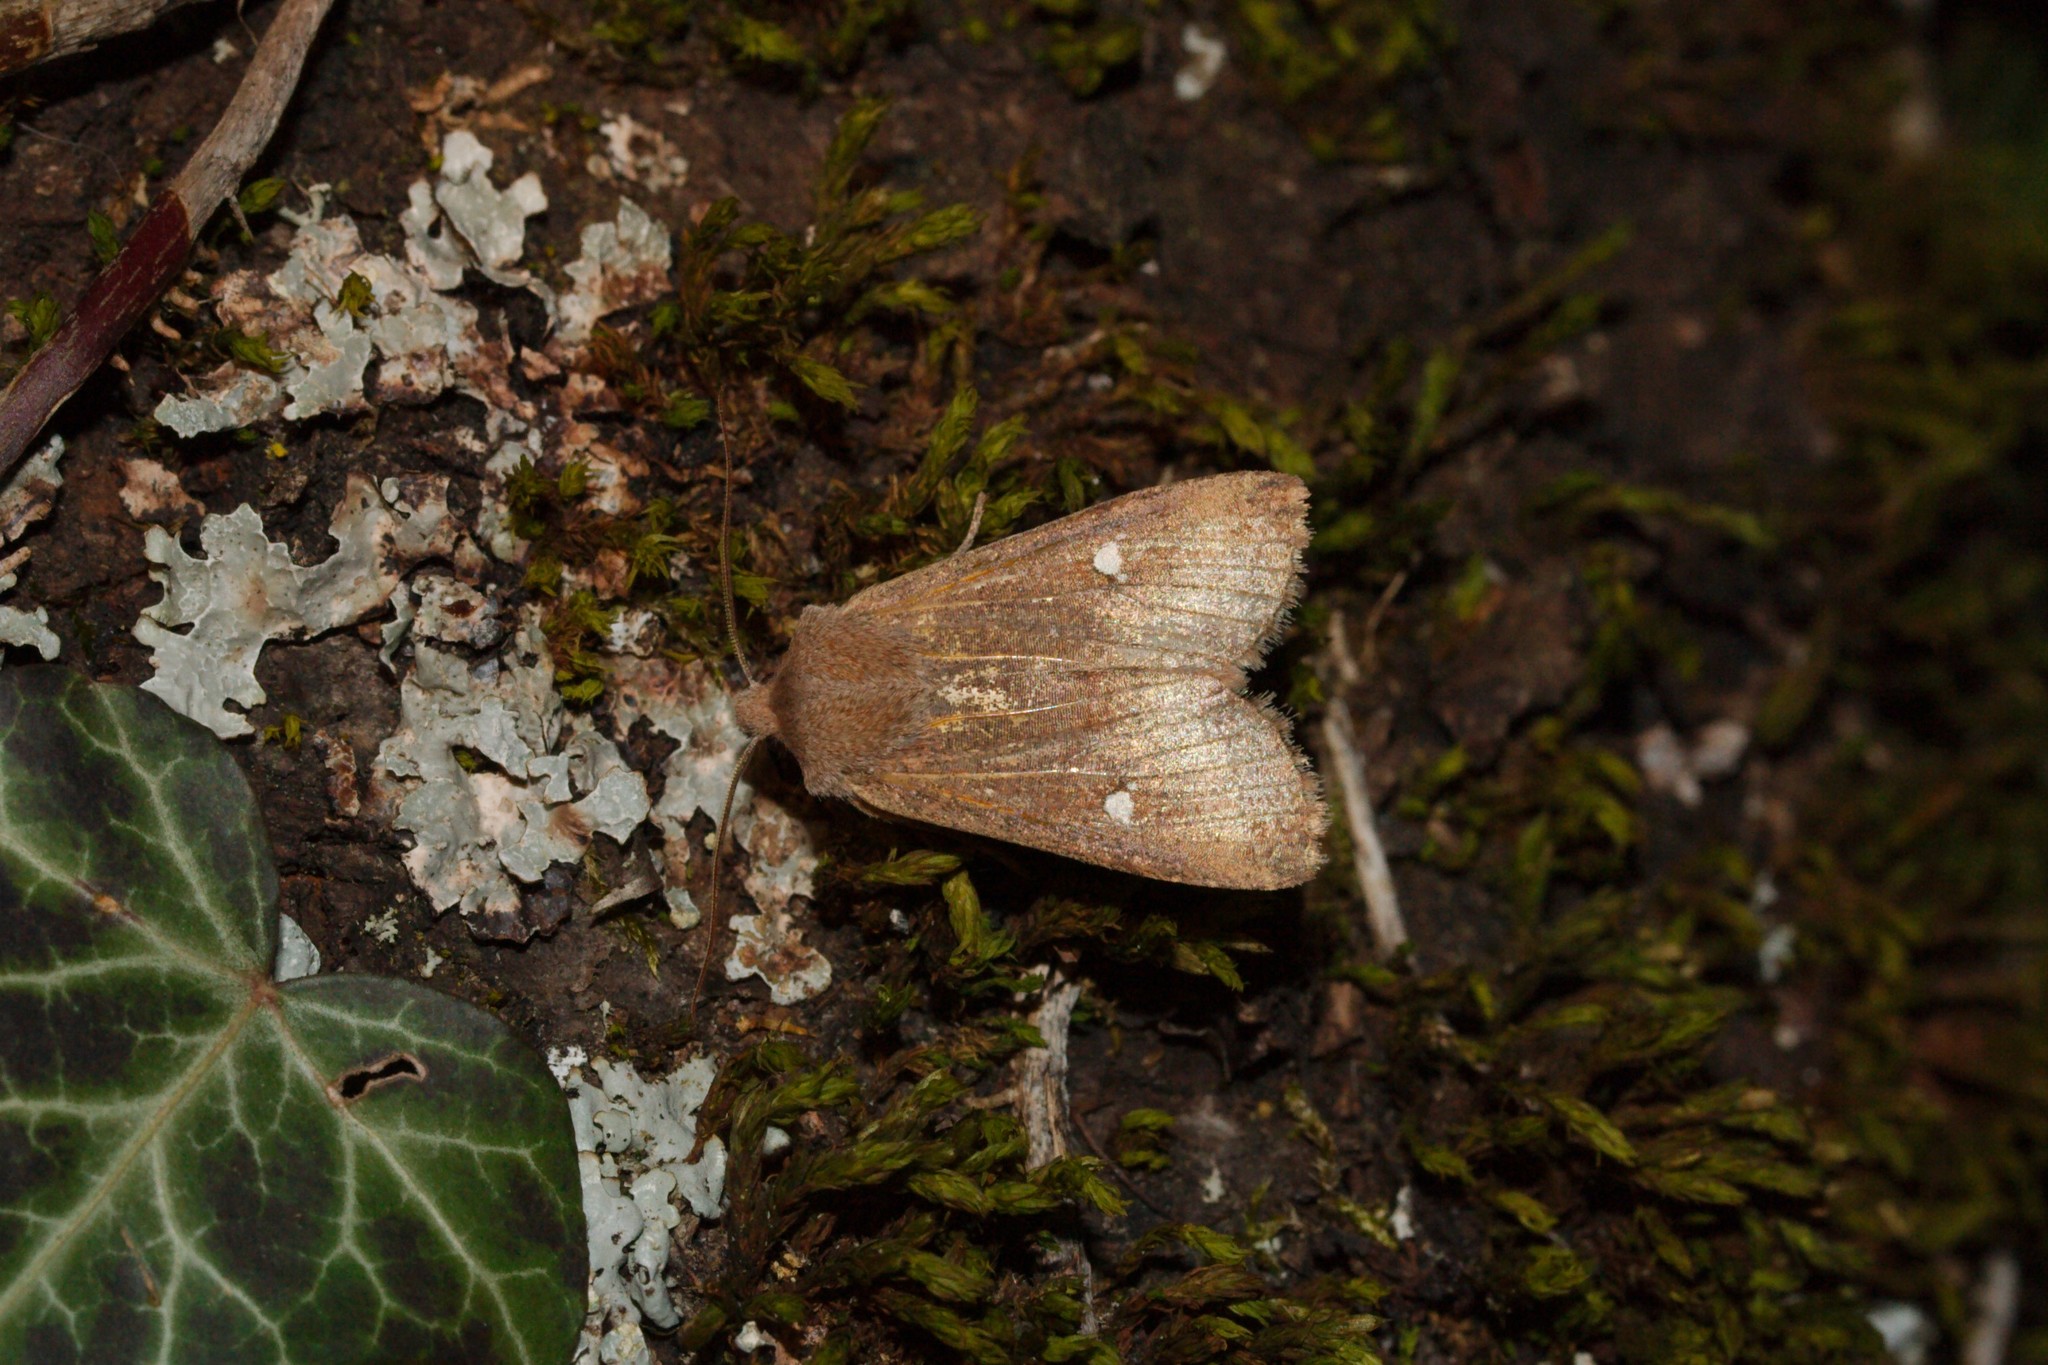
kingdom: Animalia
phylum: Arthropoda
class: Insecta
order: Lepidoptera
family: Noctuidae
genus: Eupsilia
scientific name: Eupsilia transversa
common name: Satellite
